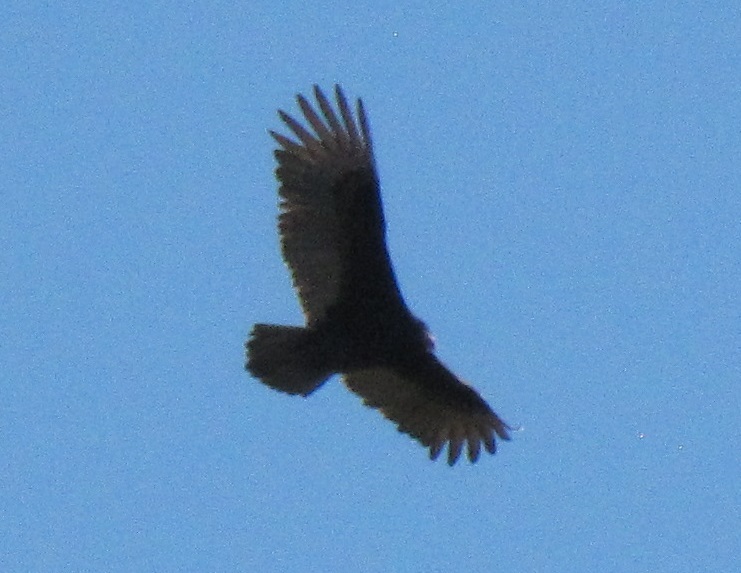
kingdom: Animalia
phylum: Chordata
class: Aves
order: Accipitriformes
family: Cathartidae
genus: Cathartes
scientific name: Cathartes aura
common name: Turkey vulture
